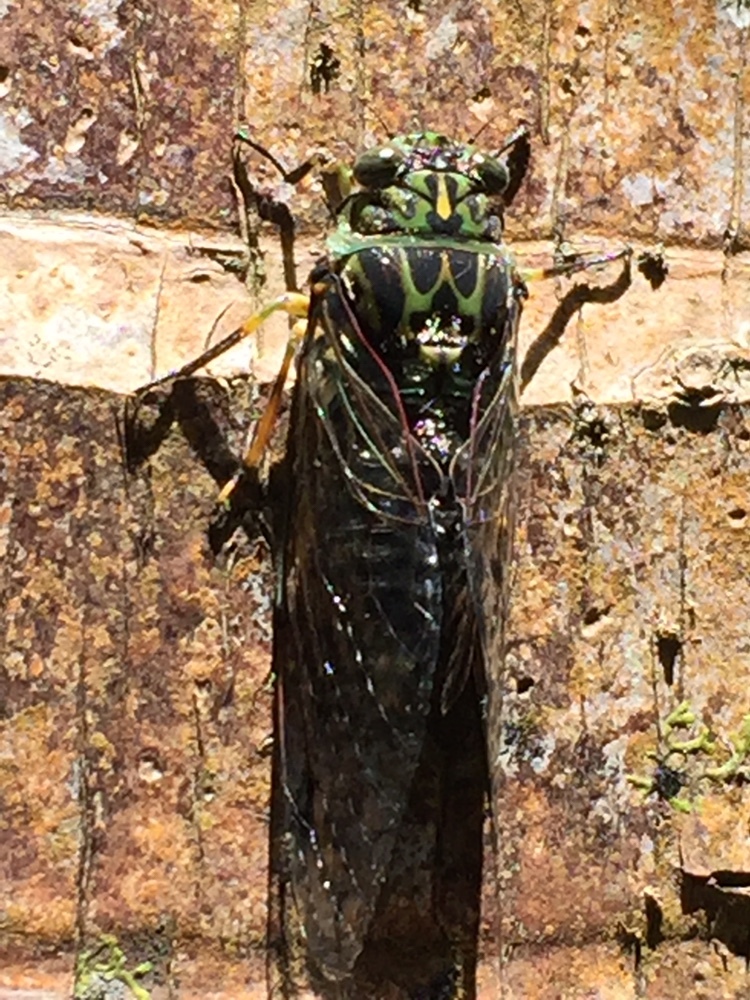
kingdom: Animalia
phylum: Arthropoda
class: Insecta
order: Hemiptera
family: Cicadidae
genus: Amphipsalta
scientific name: Amphipsalta zelandica
